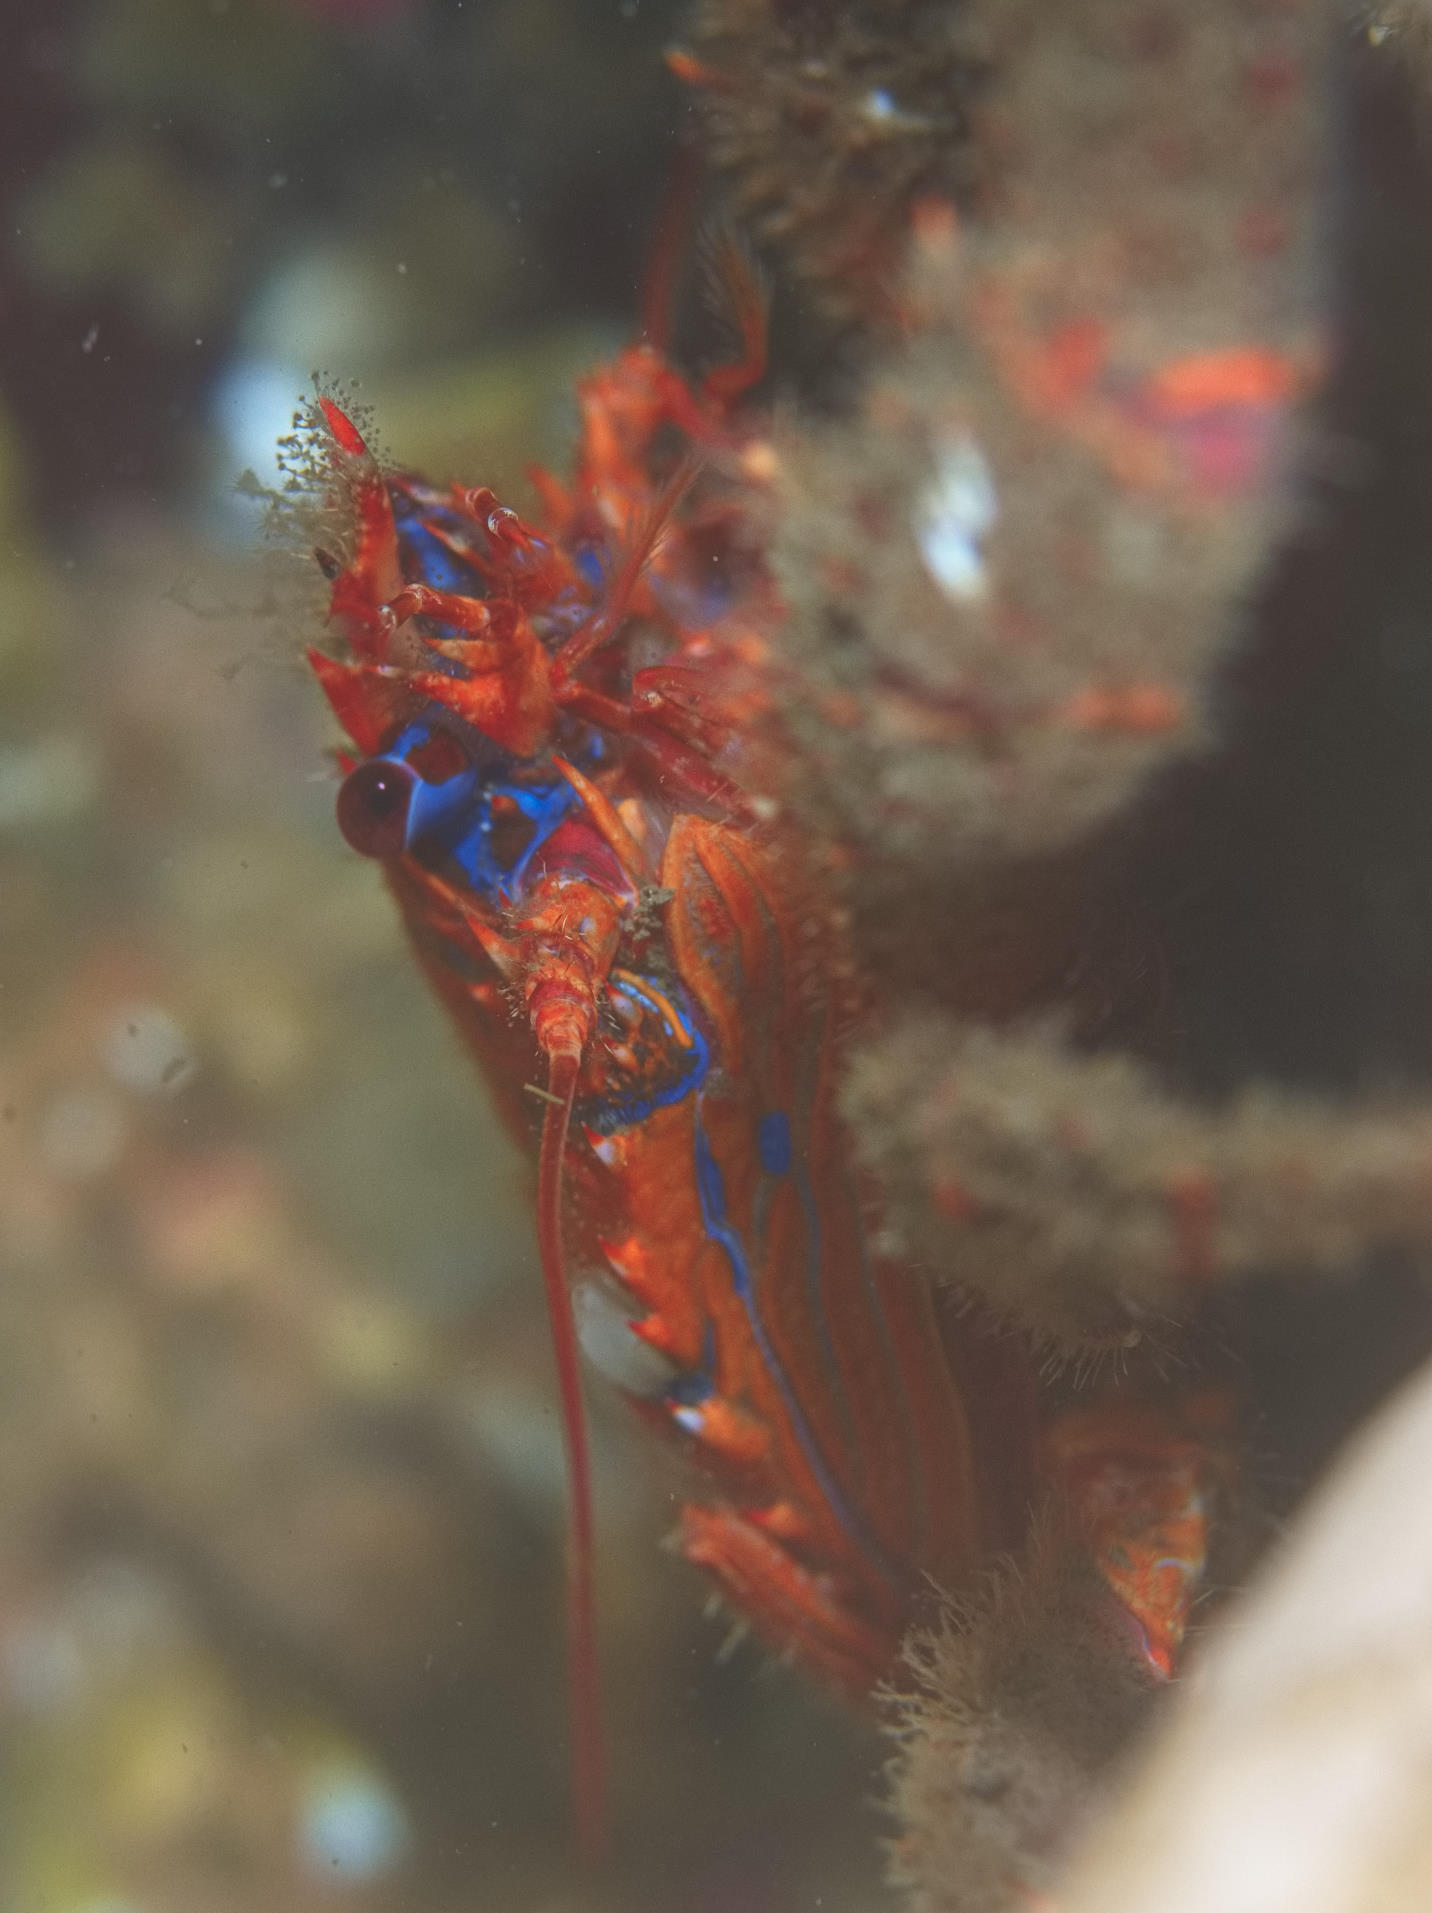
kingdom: Animalia
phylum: Arthropoda
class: Malacostraca
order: Decapoda
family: Galatheidae
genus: Galathea
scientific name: Galathea strigosa
